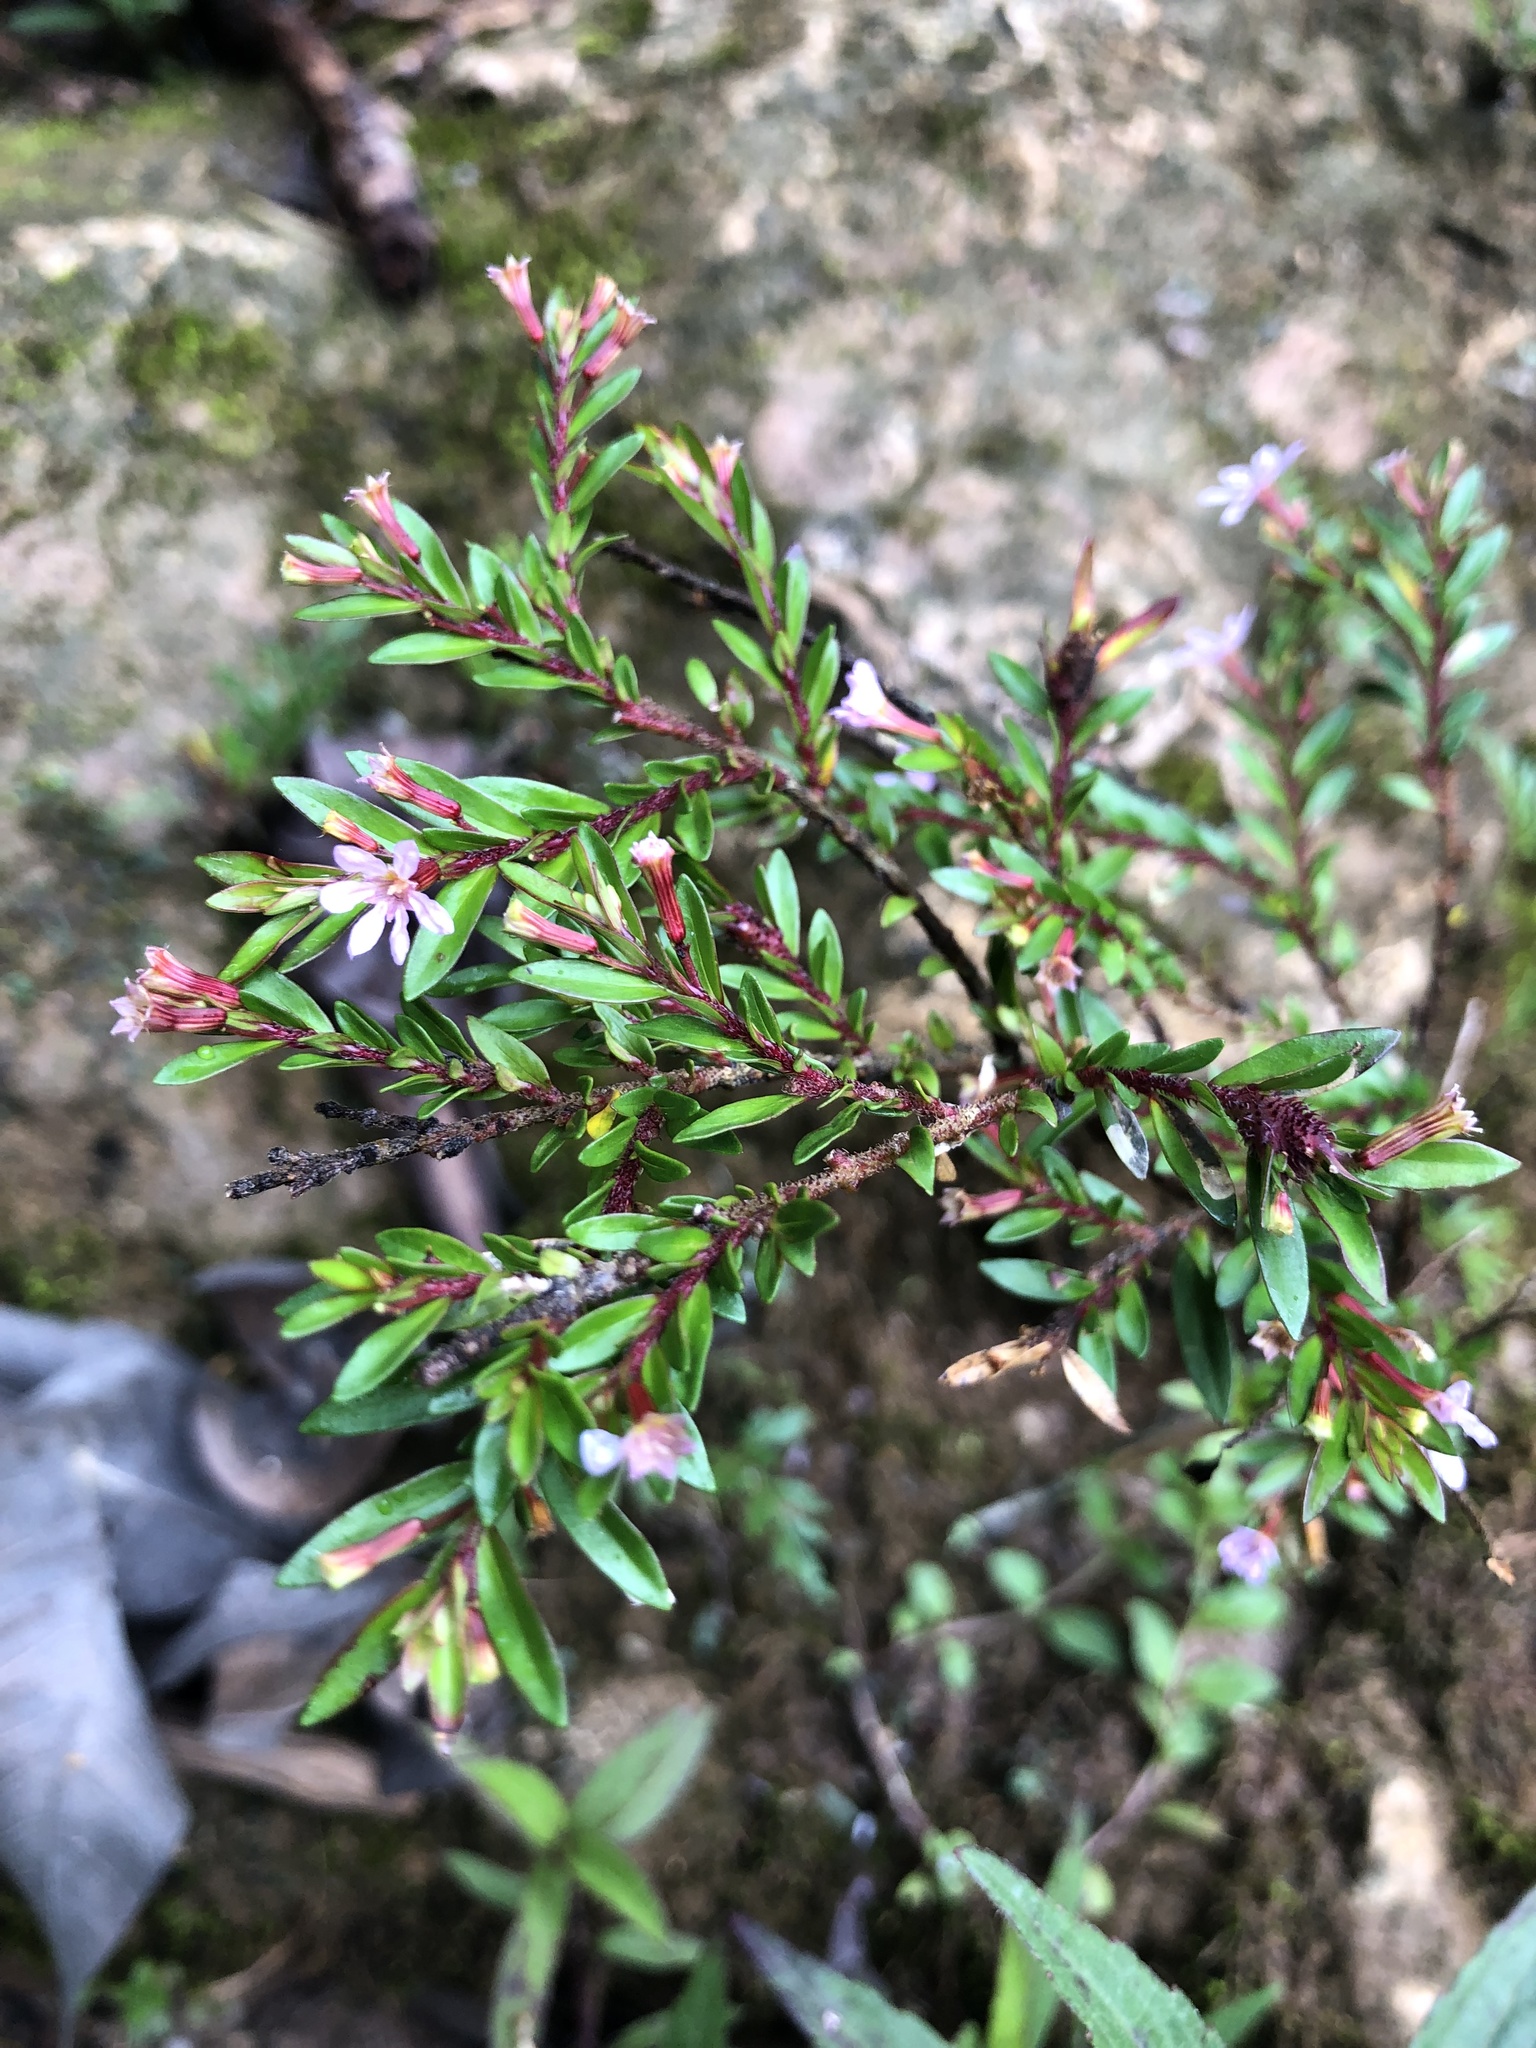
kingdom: Plantae
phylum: Tracheophyta
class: Magnoliopsida
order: Myrtales
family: Lythraceae
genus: Cuphea
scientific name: Cuphea hyssopifolia
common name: False heather
